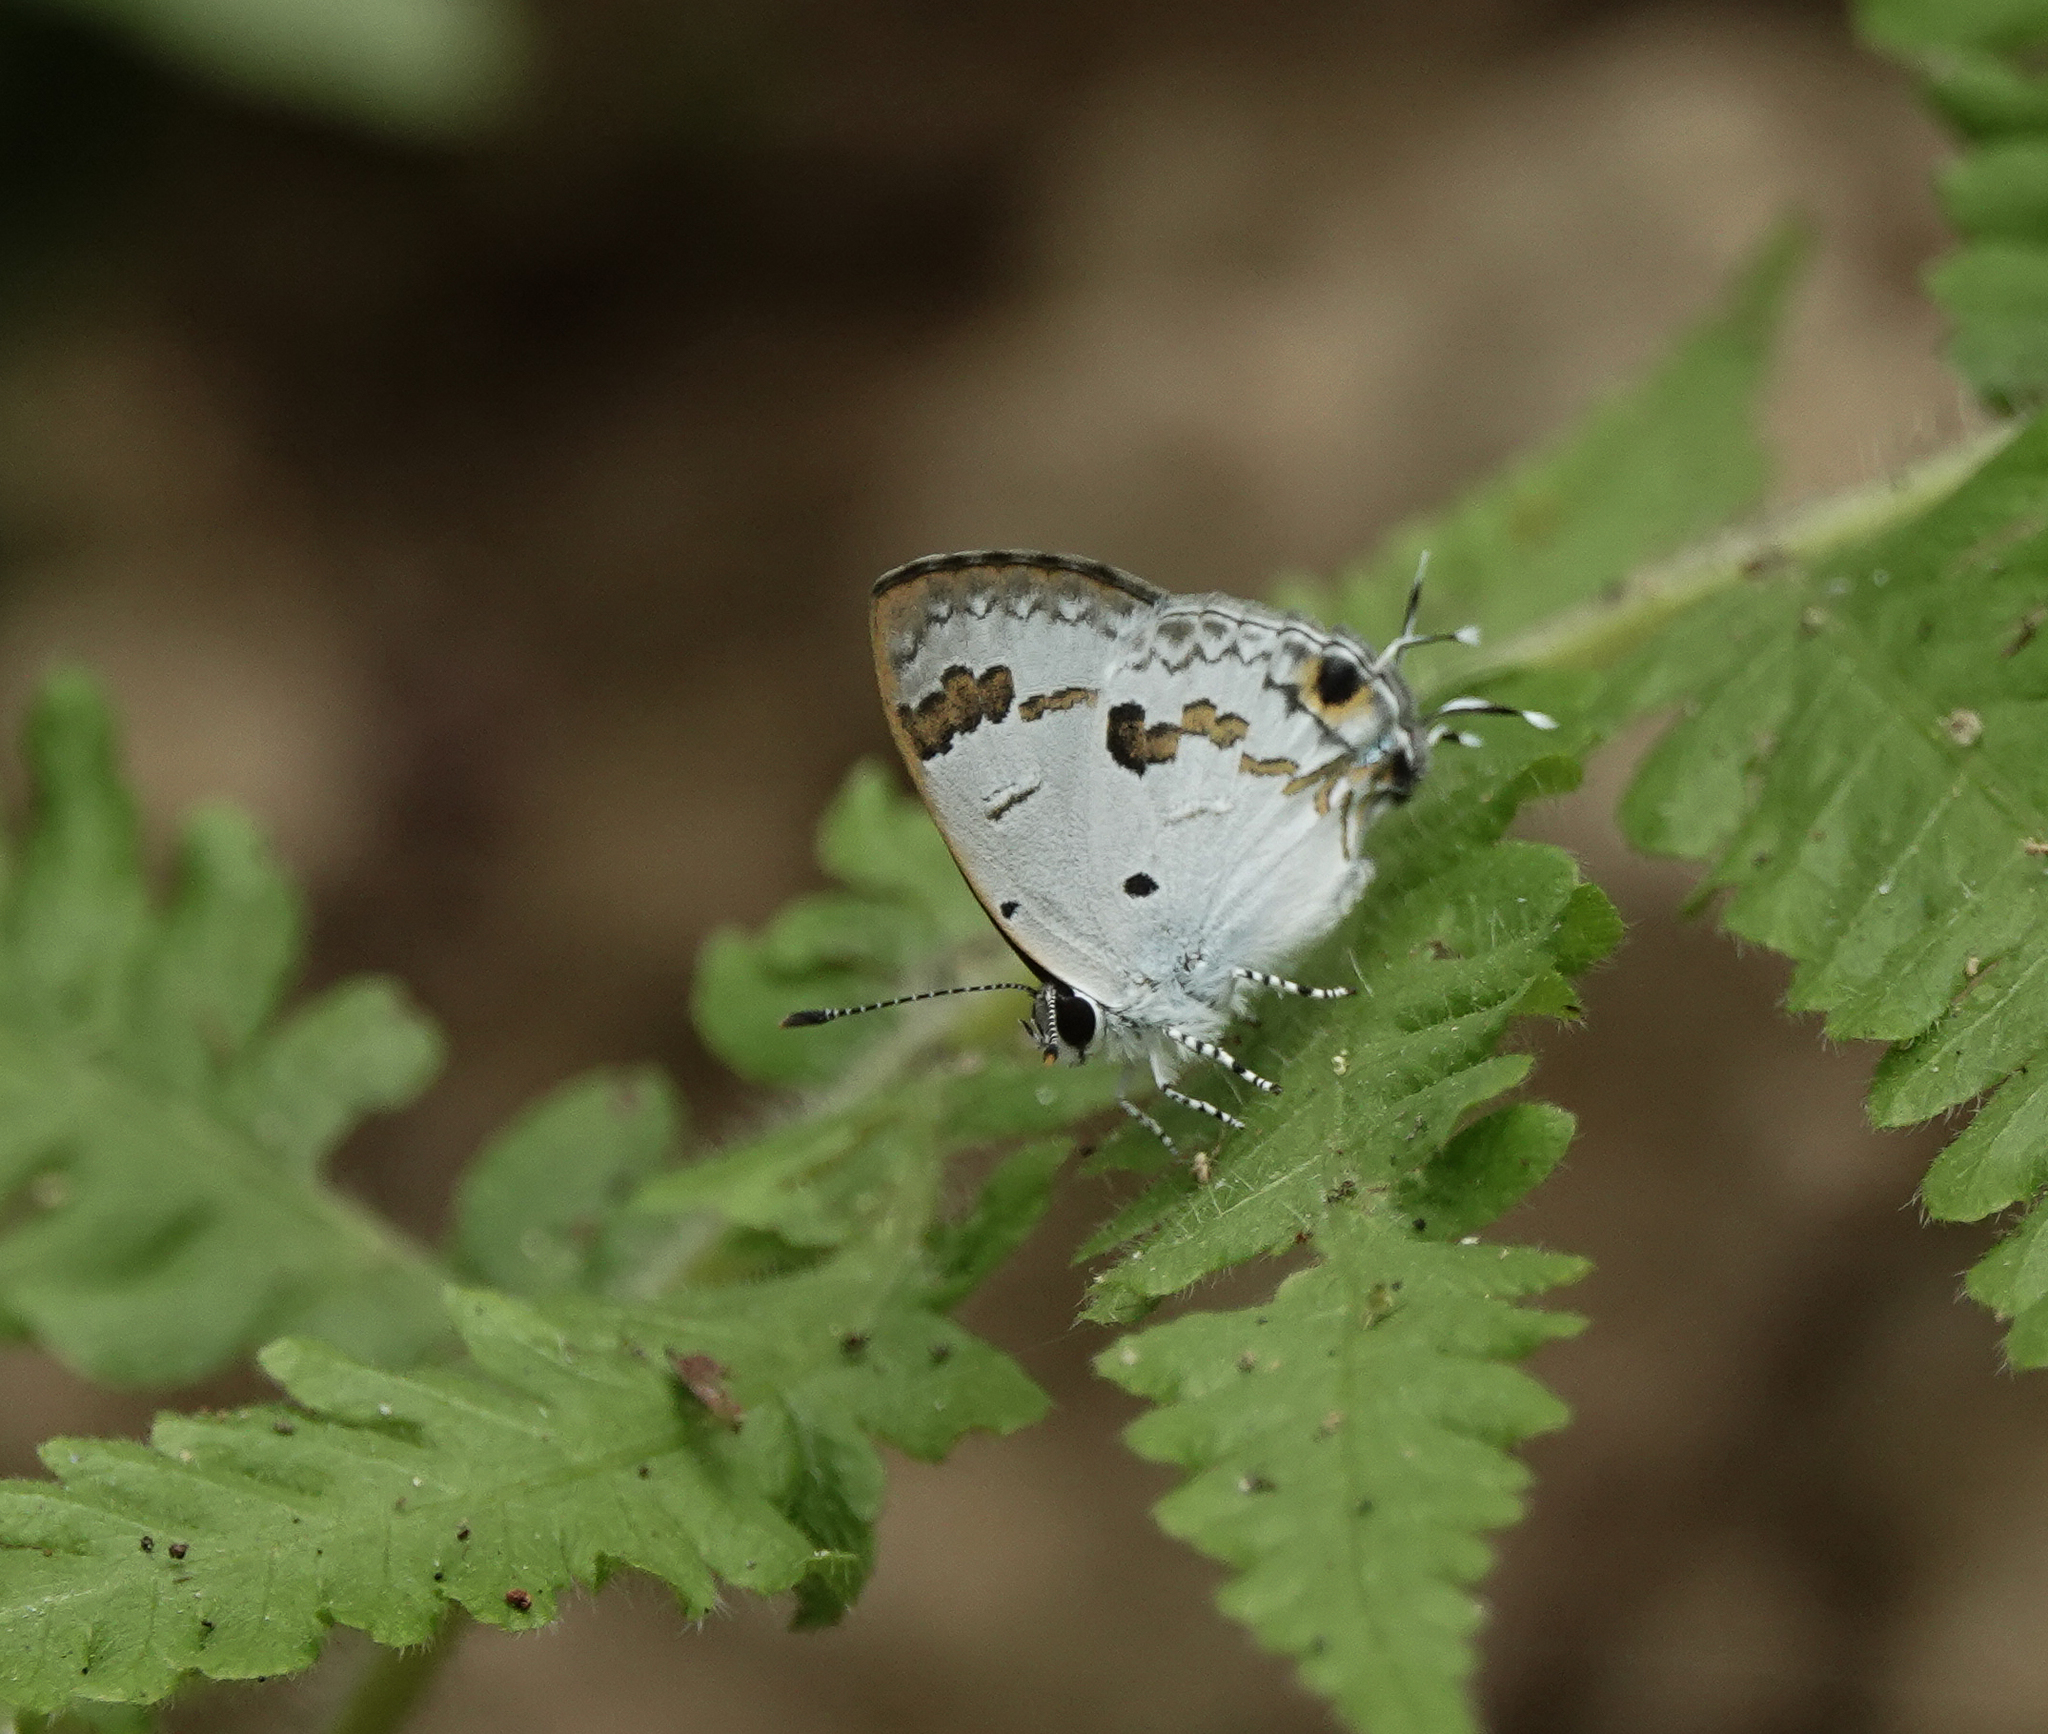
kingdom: Animalia
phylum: Arthropoda
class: Insecta
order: Lepidoptera
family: Lycaenidae
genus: Chliaria
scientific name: Chliaria othona
